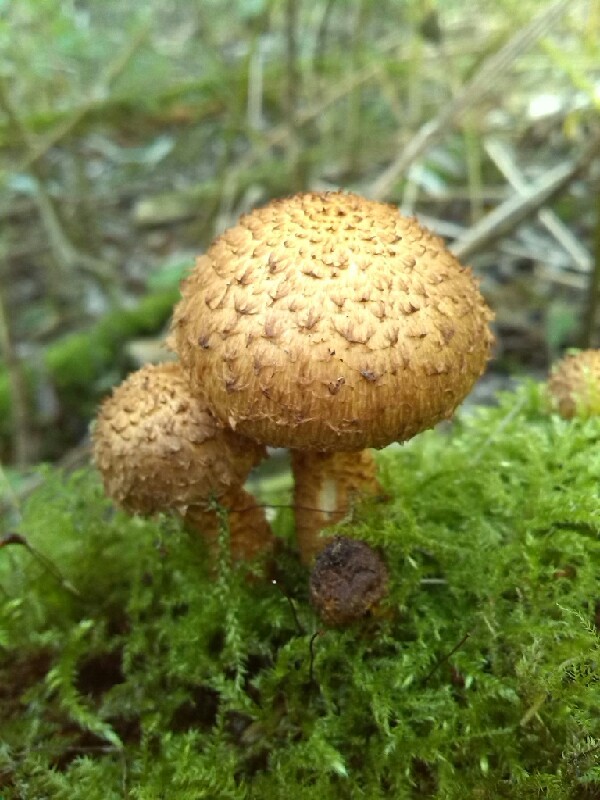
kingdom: Fungi
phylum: Basidiomycota
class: Agaricomycetes
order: Agaricales
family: Strophariaceae
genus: Pholiota
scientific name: Pholiota squarrosa
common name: Shaggy pholiota
